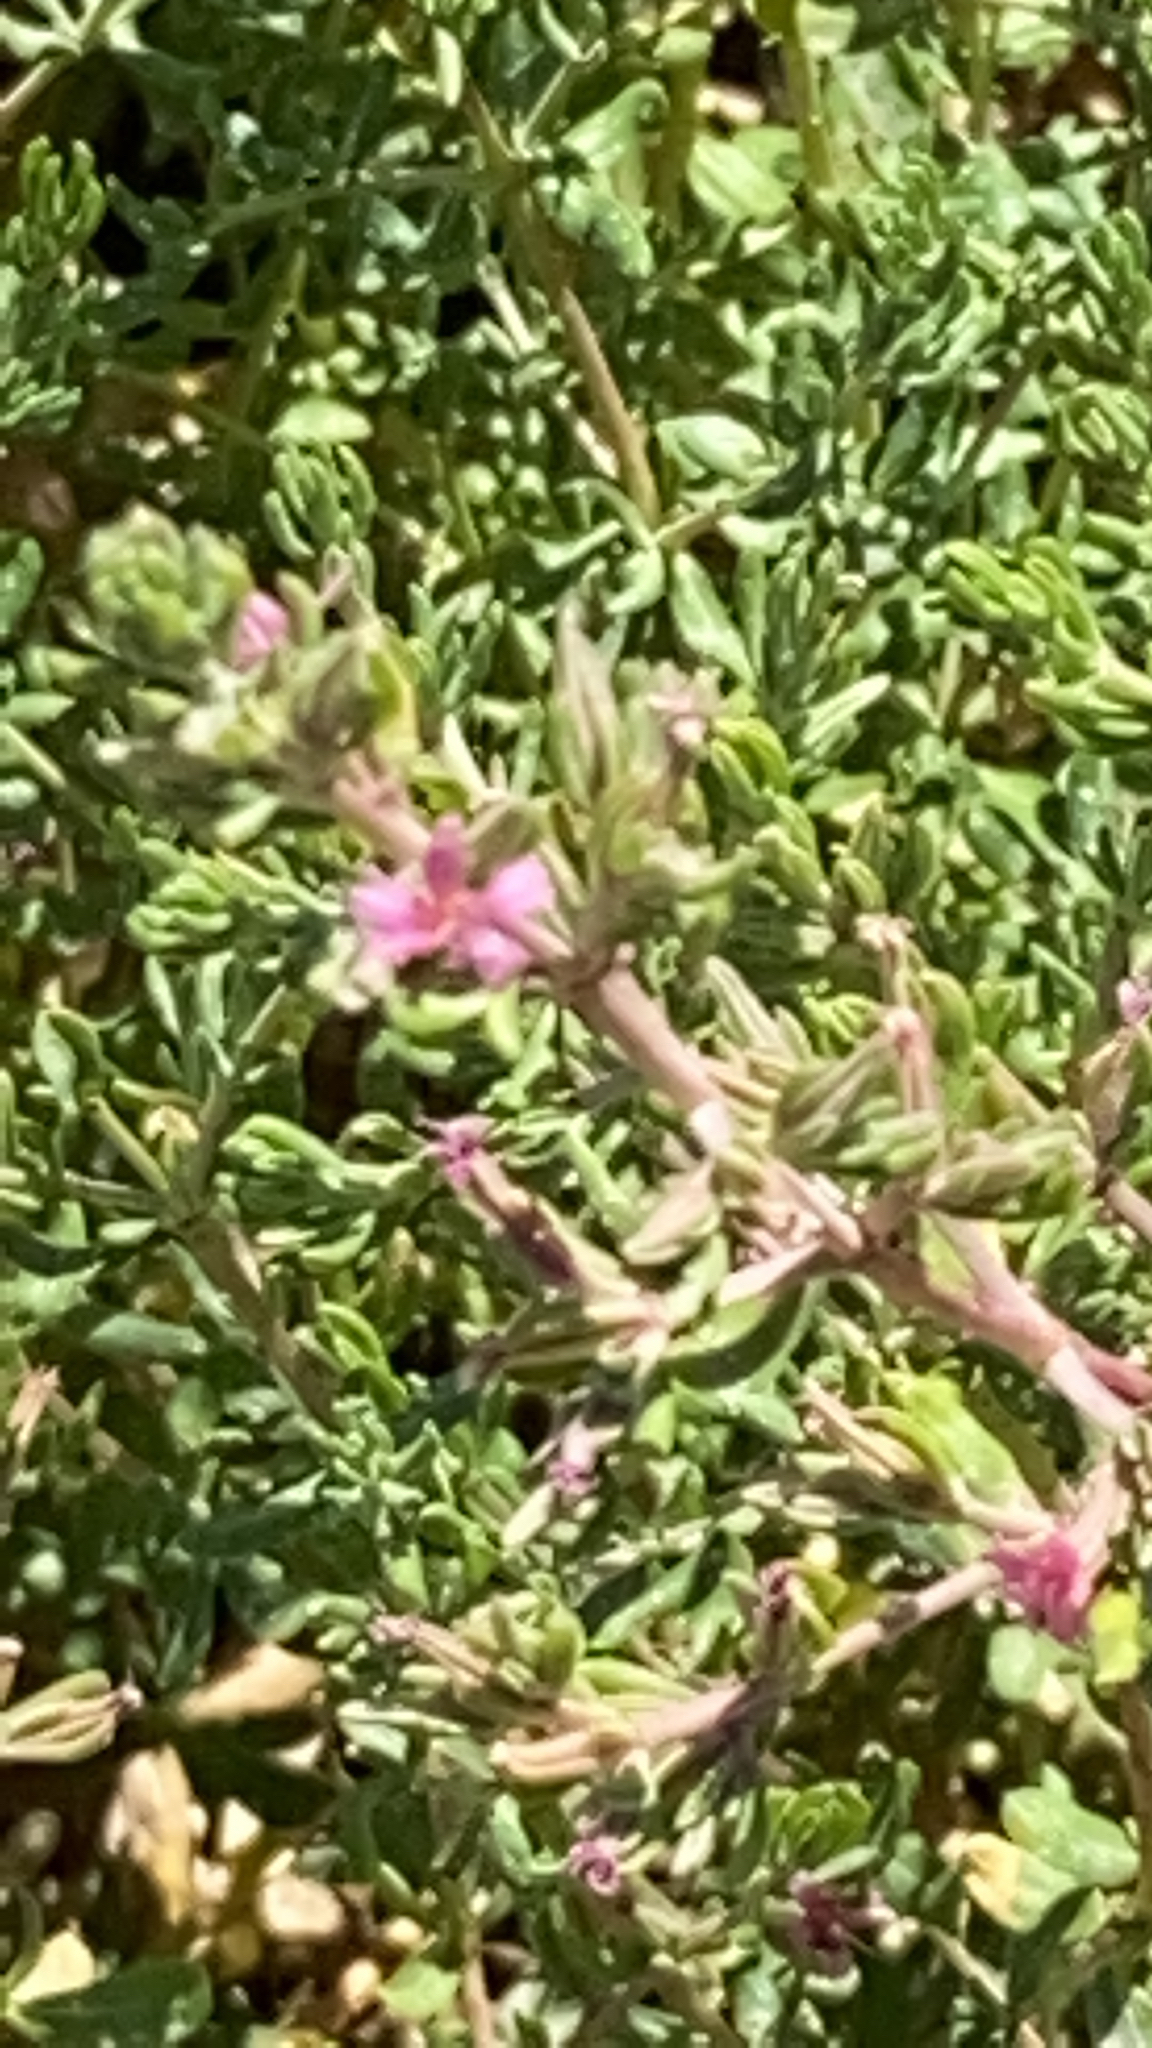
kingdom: Plantae
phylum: Tracheophyta
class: Magnoliopsida
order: Caryophyllales
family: Frankeniaceae
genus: Frankenia
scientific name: Frankenia salina
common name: Alkali seaheath
